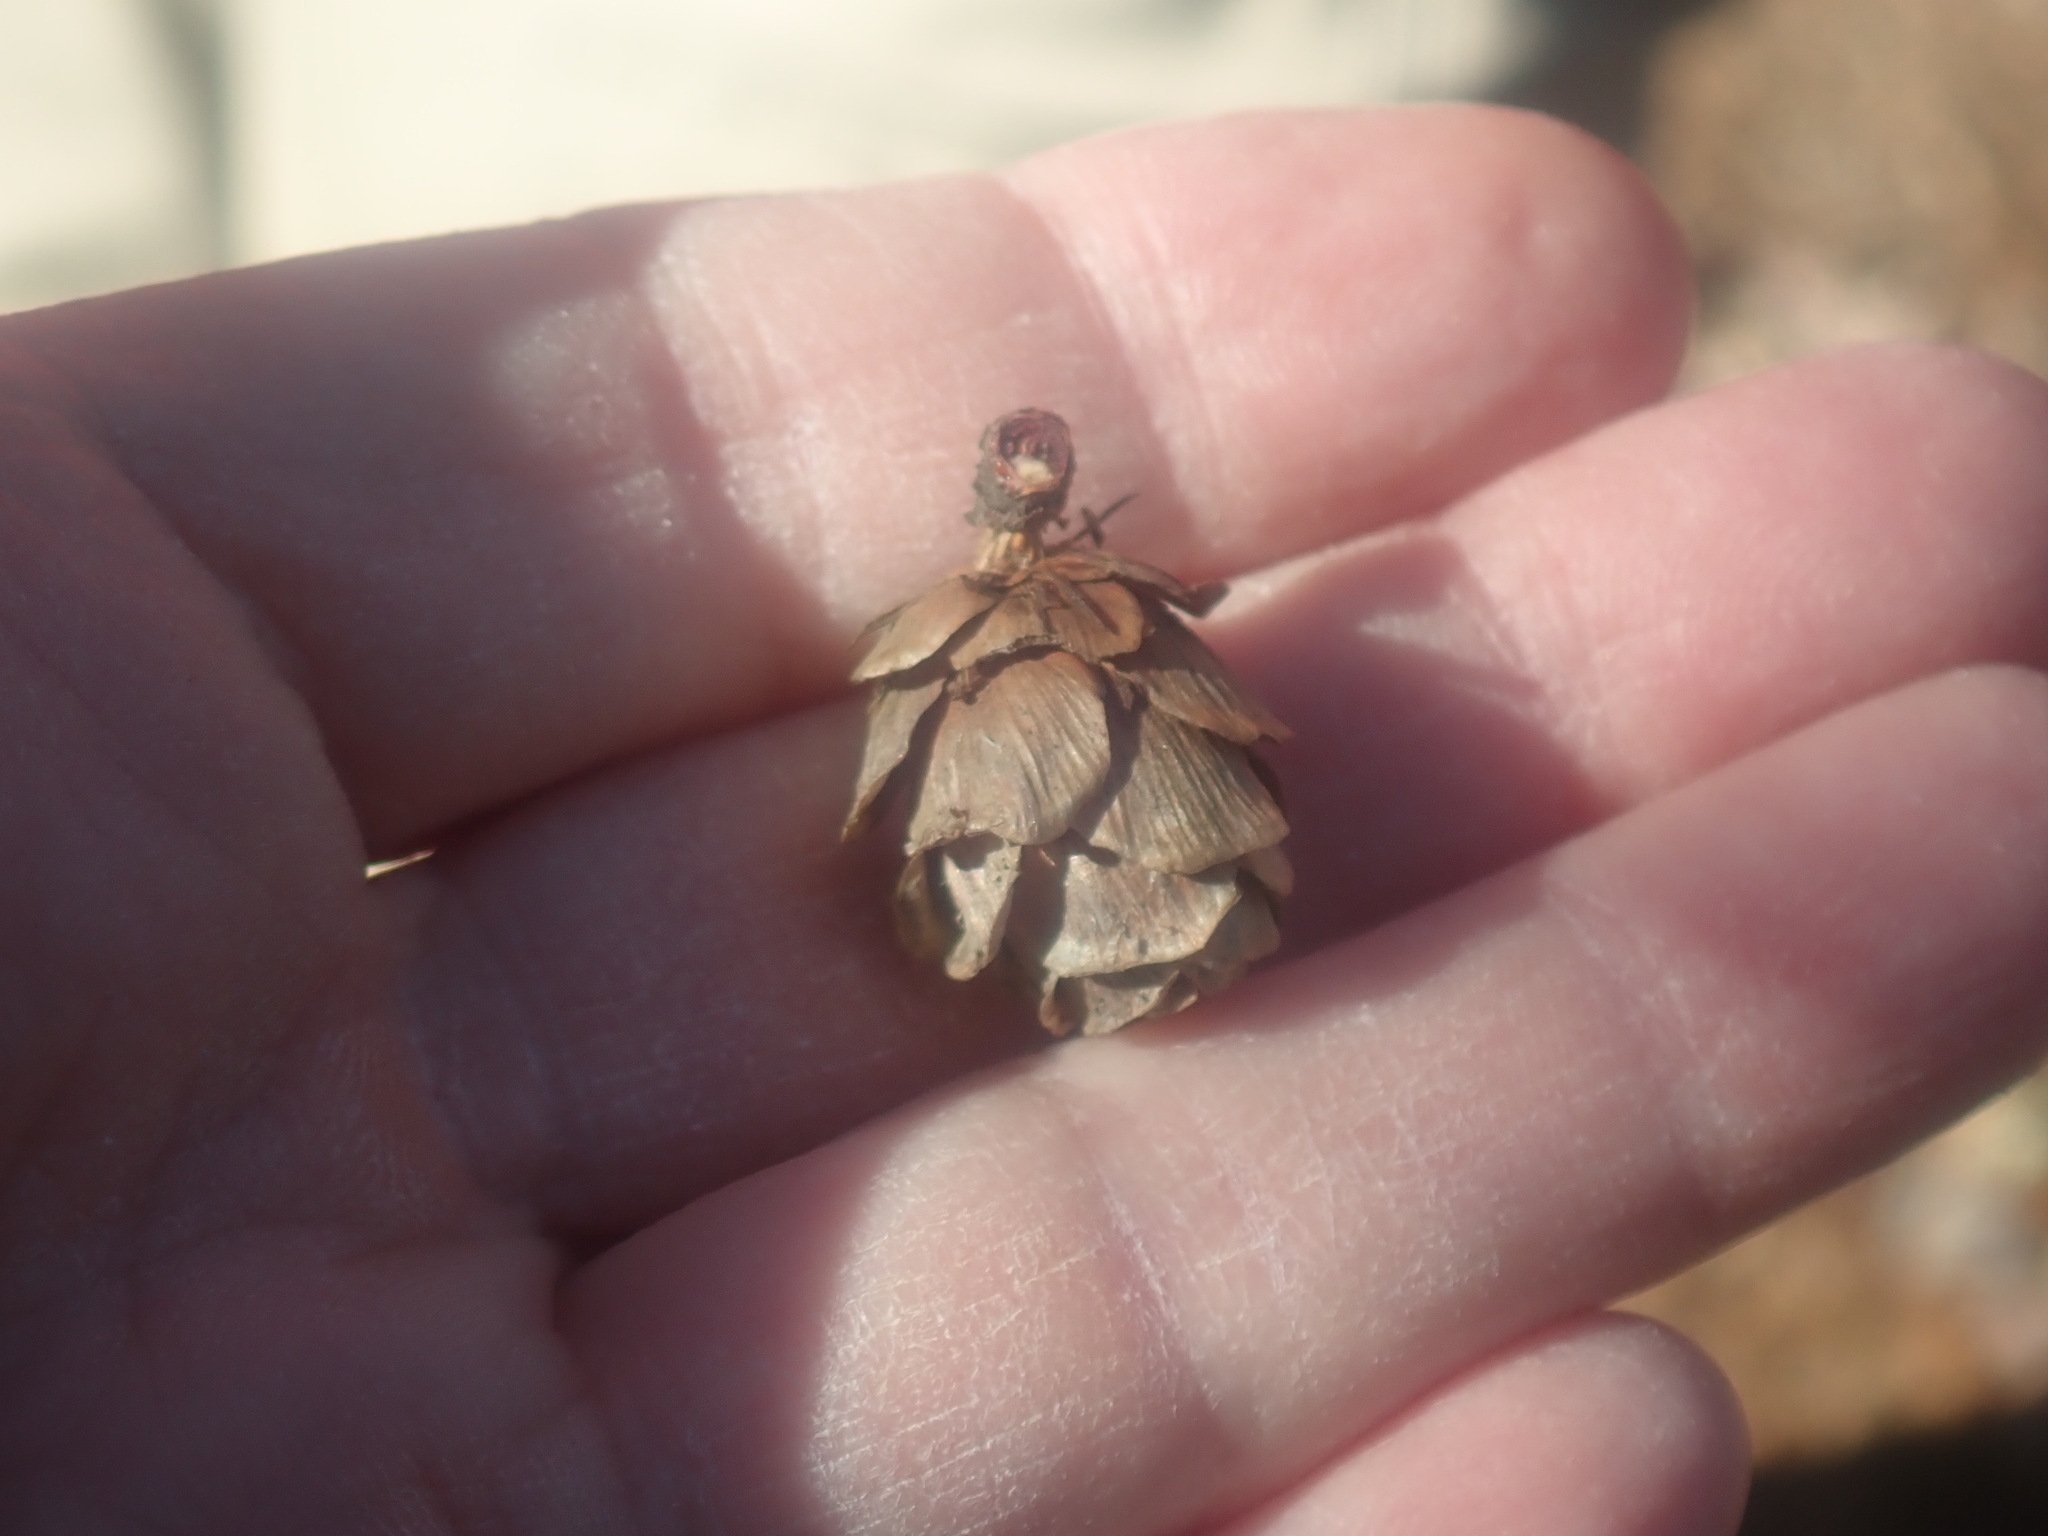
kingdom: Plantae
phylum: Tracheophyta
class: Pinopsida
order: Pinales
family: Pinaceae
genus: Larix
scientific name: Larix laricina
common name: American larch
